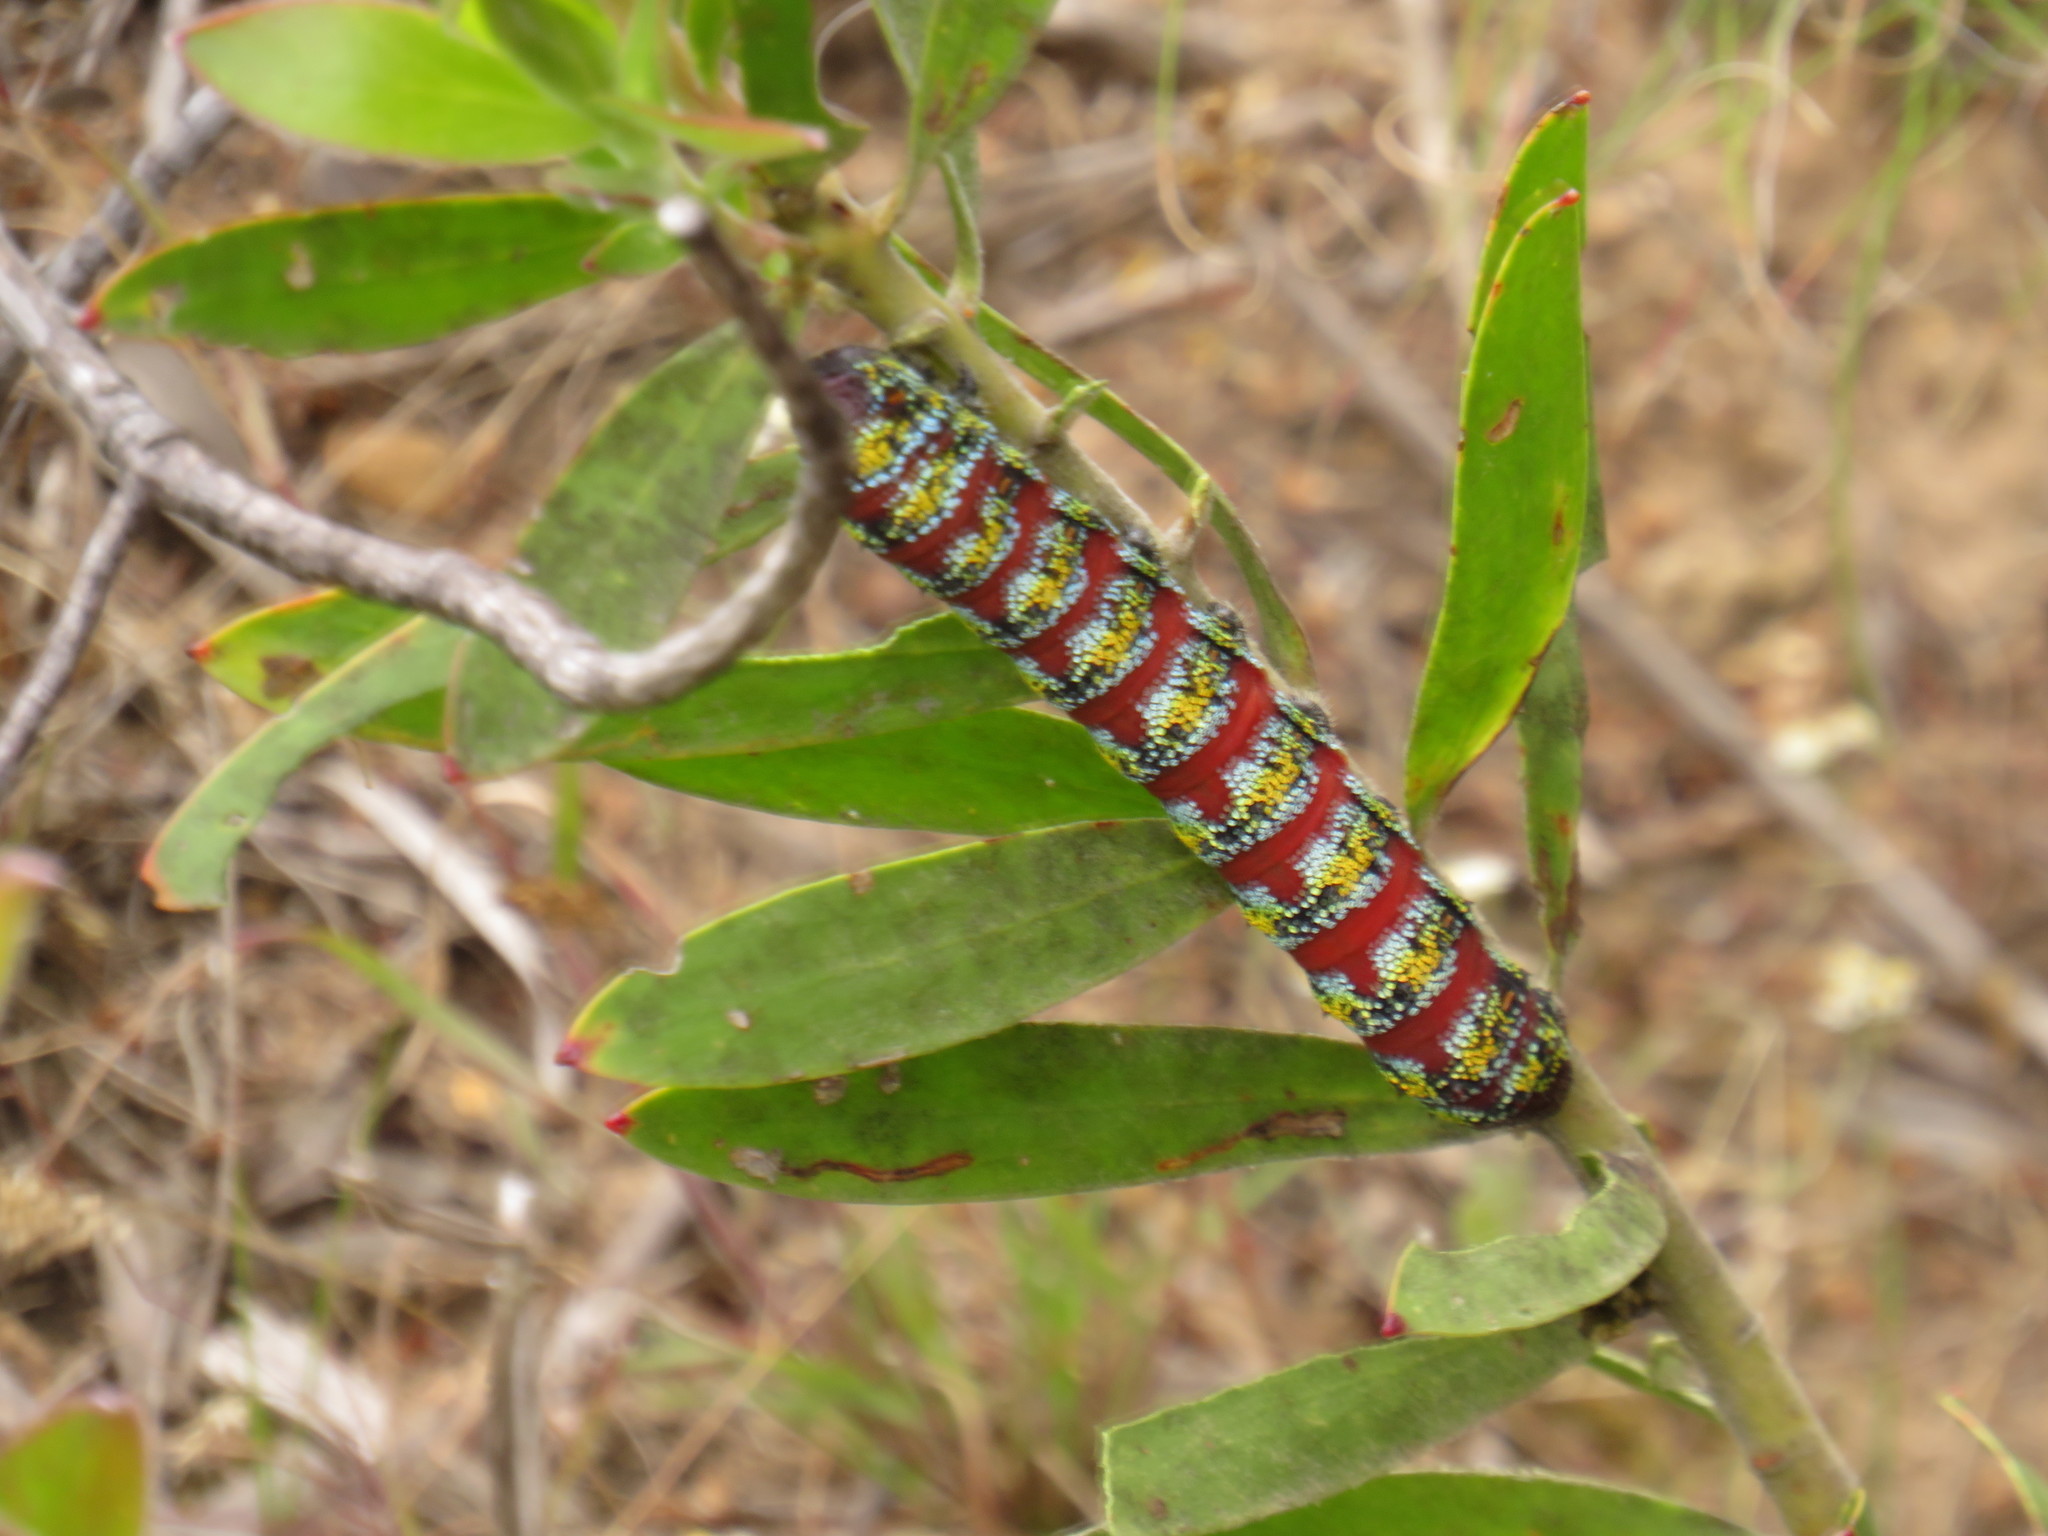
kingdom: Animalia
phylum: Arthropoda
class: Insecta
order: Lepidoptera
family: Saturniidae
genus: Nudaurelia
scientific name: Nudaurelia cytherea
